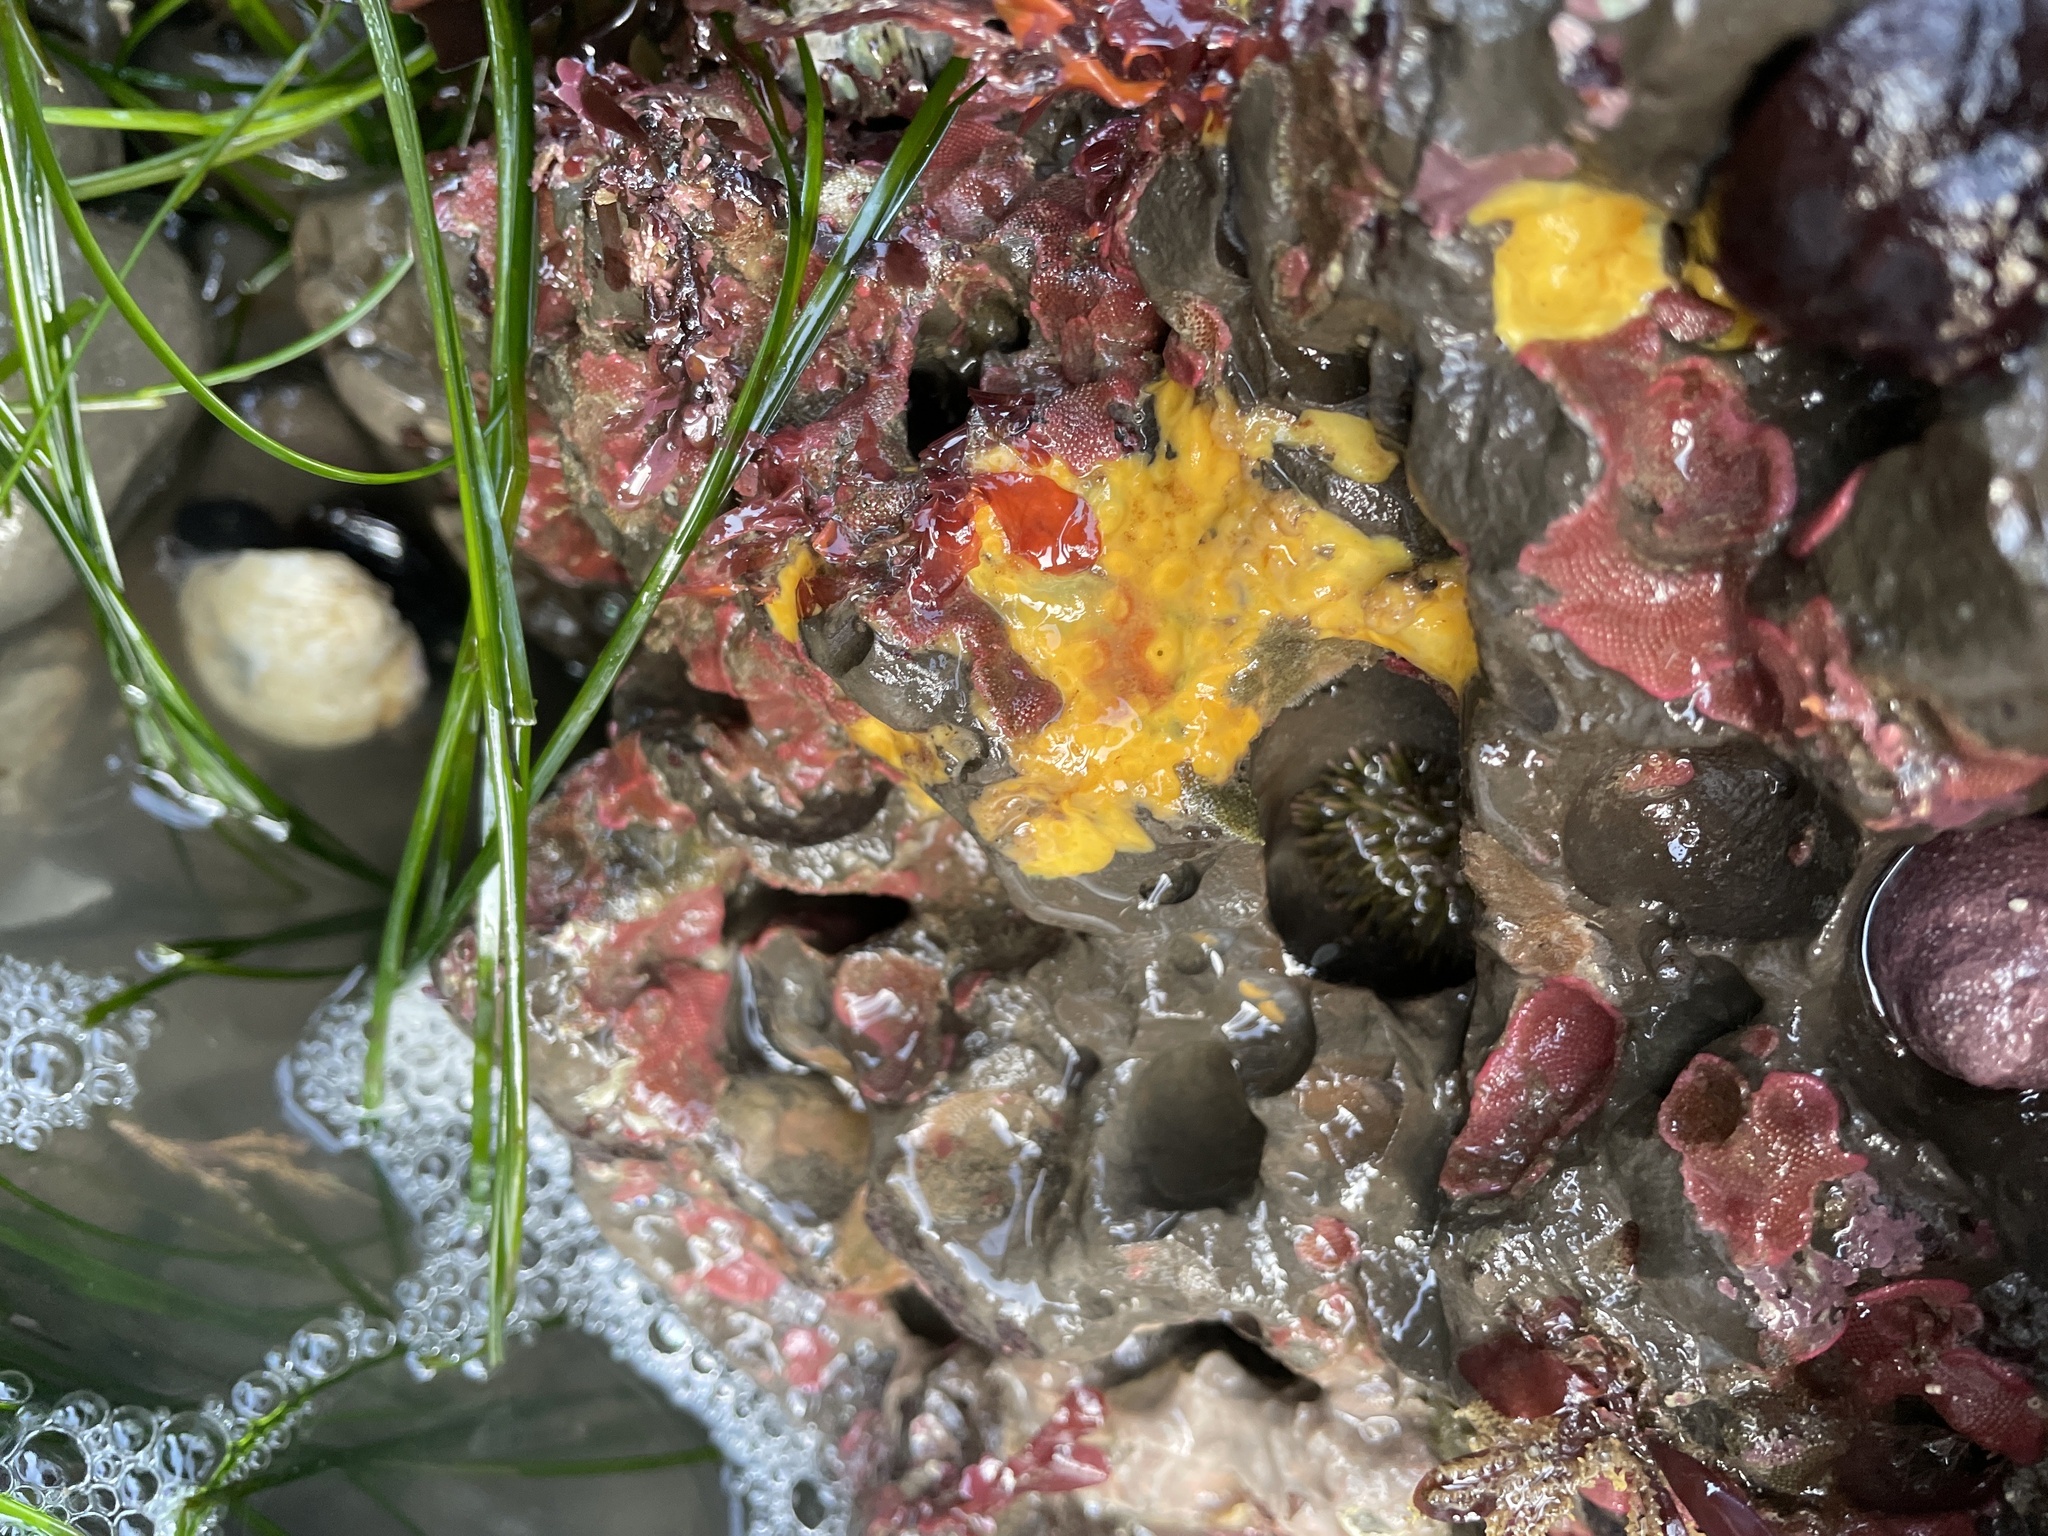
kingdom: Animalia
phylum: Porifera
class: Demospongiae
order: Clionaida
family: Clionaidae
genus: Cliona
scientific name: Cliona californiana
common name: California boring horny sponge
